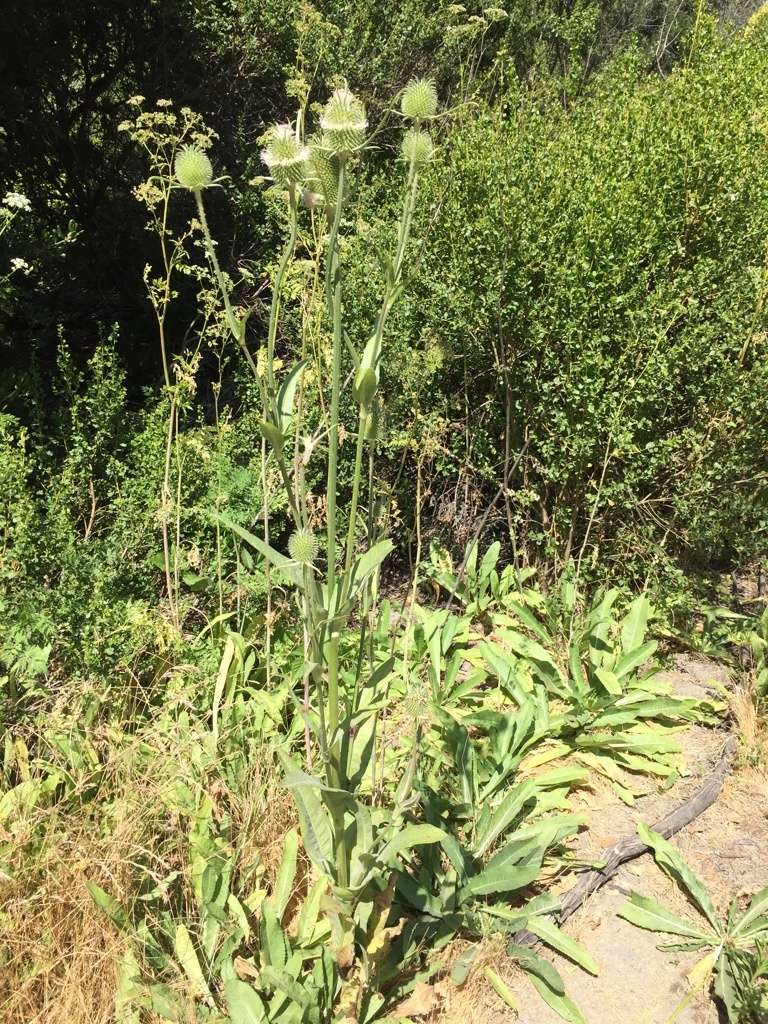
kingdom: Plantae
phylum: Tracheophyta
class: Magnoliopsida
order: Dipsacales
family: Caprifoliaceae
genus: Dipsacus
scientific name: Dipsacus sativus
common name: Fuller's teasel
